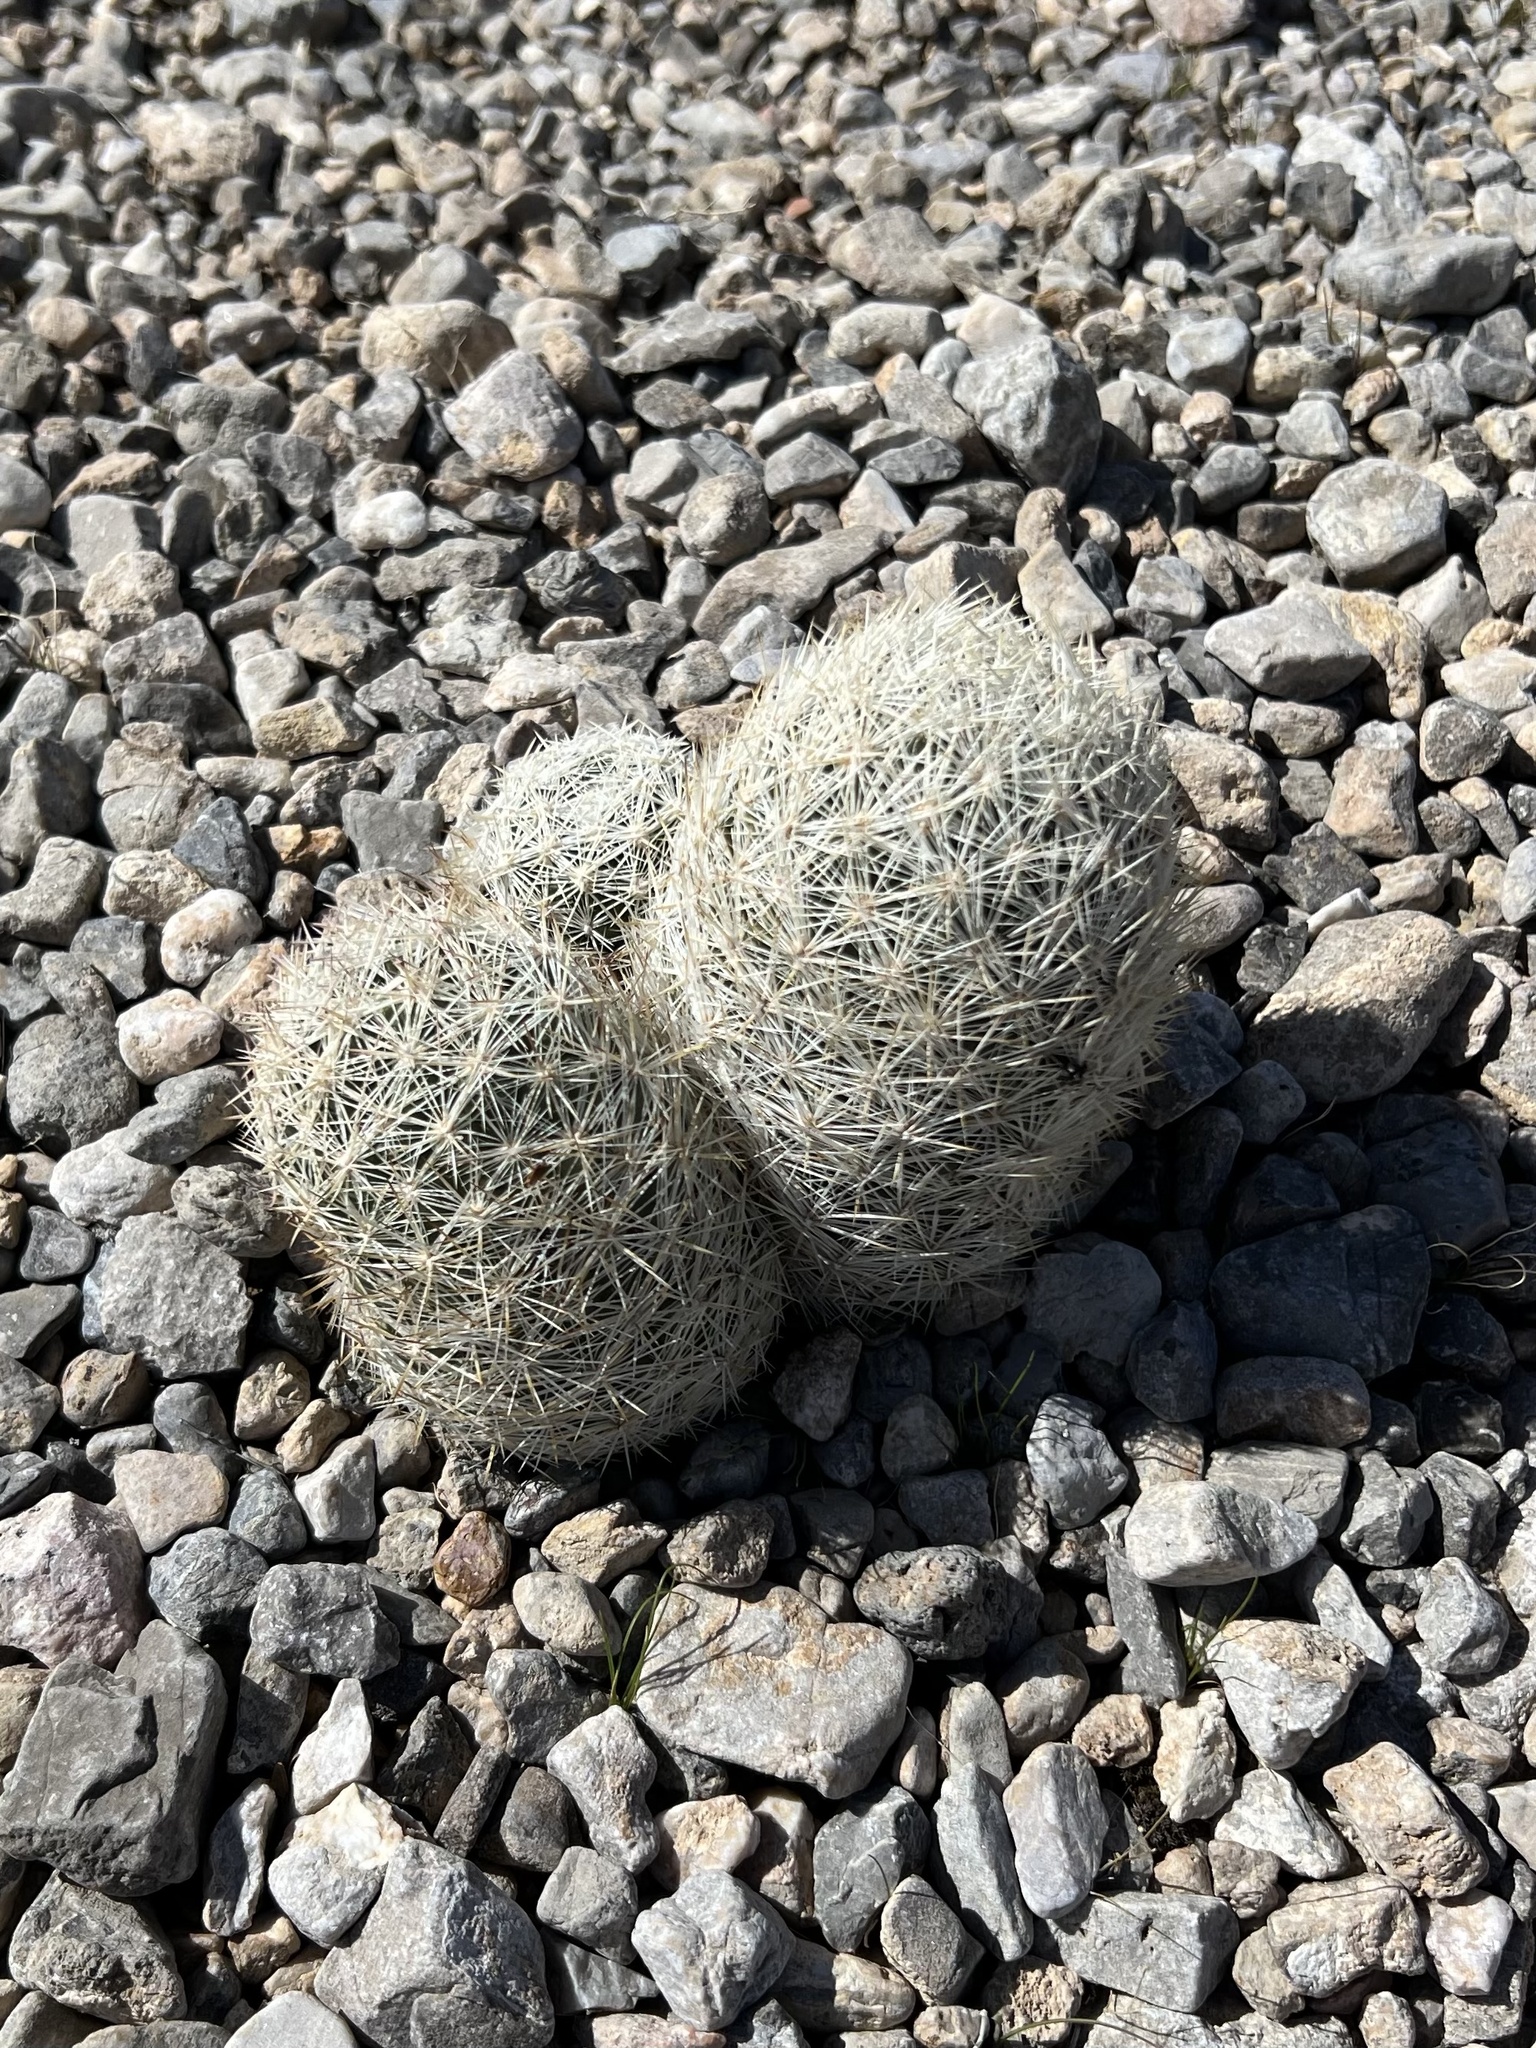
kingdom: Plantae
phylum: Tracheophyta
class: Magnoliopsida
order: Caryophyllales
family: Cactaceae
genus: Pelecyphora
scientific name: Pelecyphora dasyacantha
